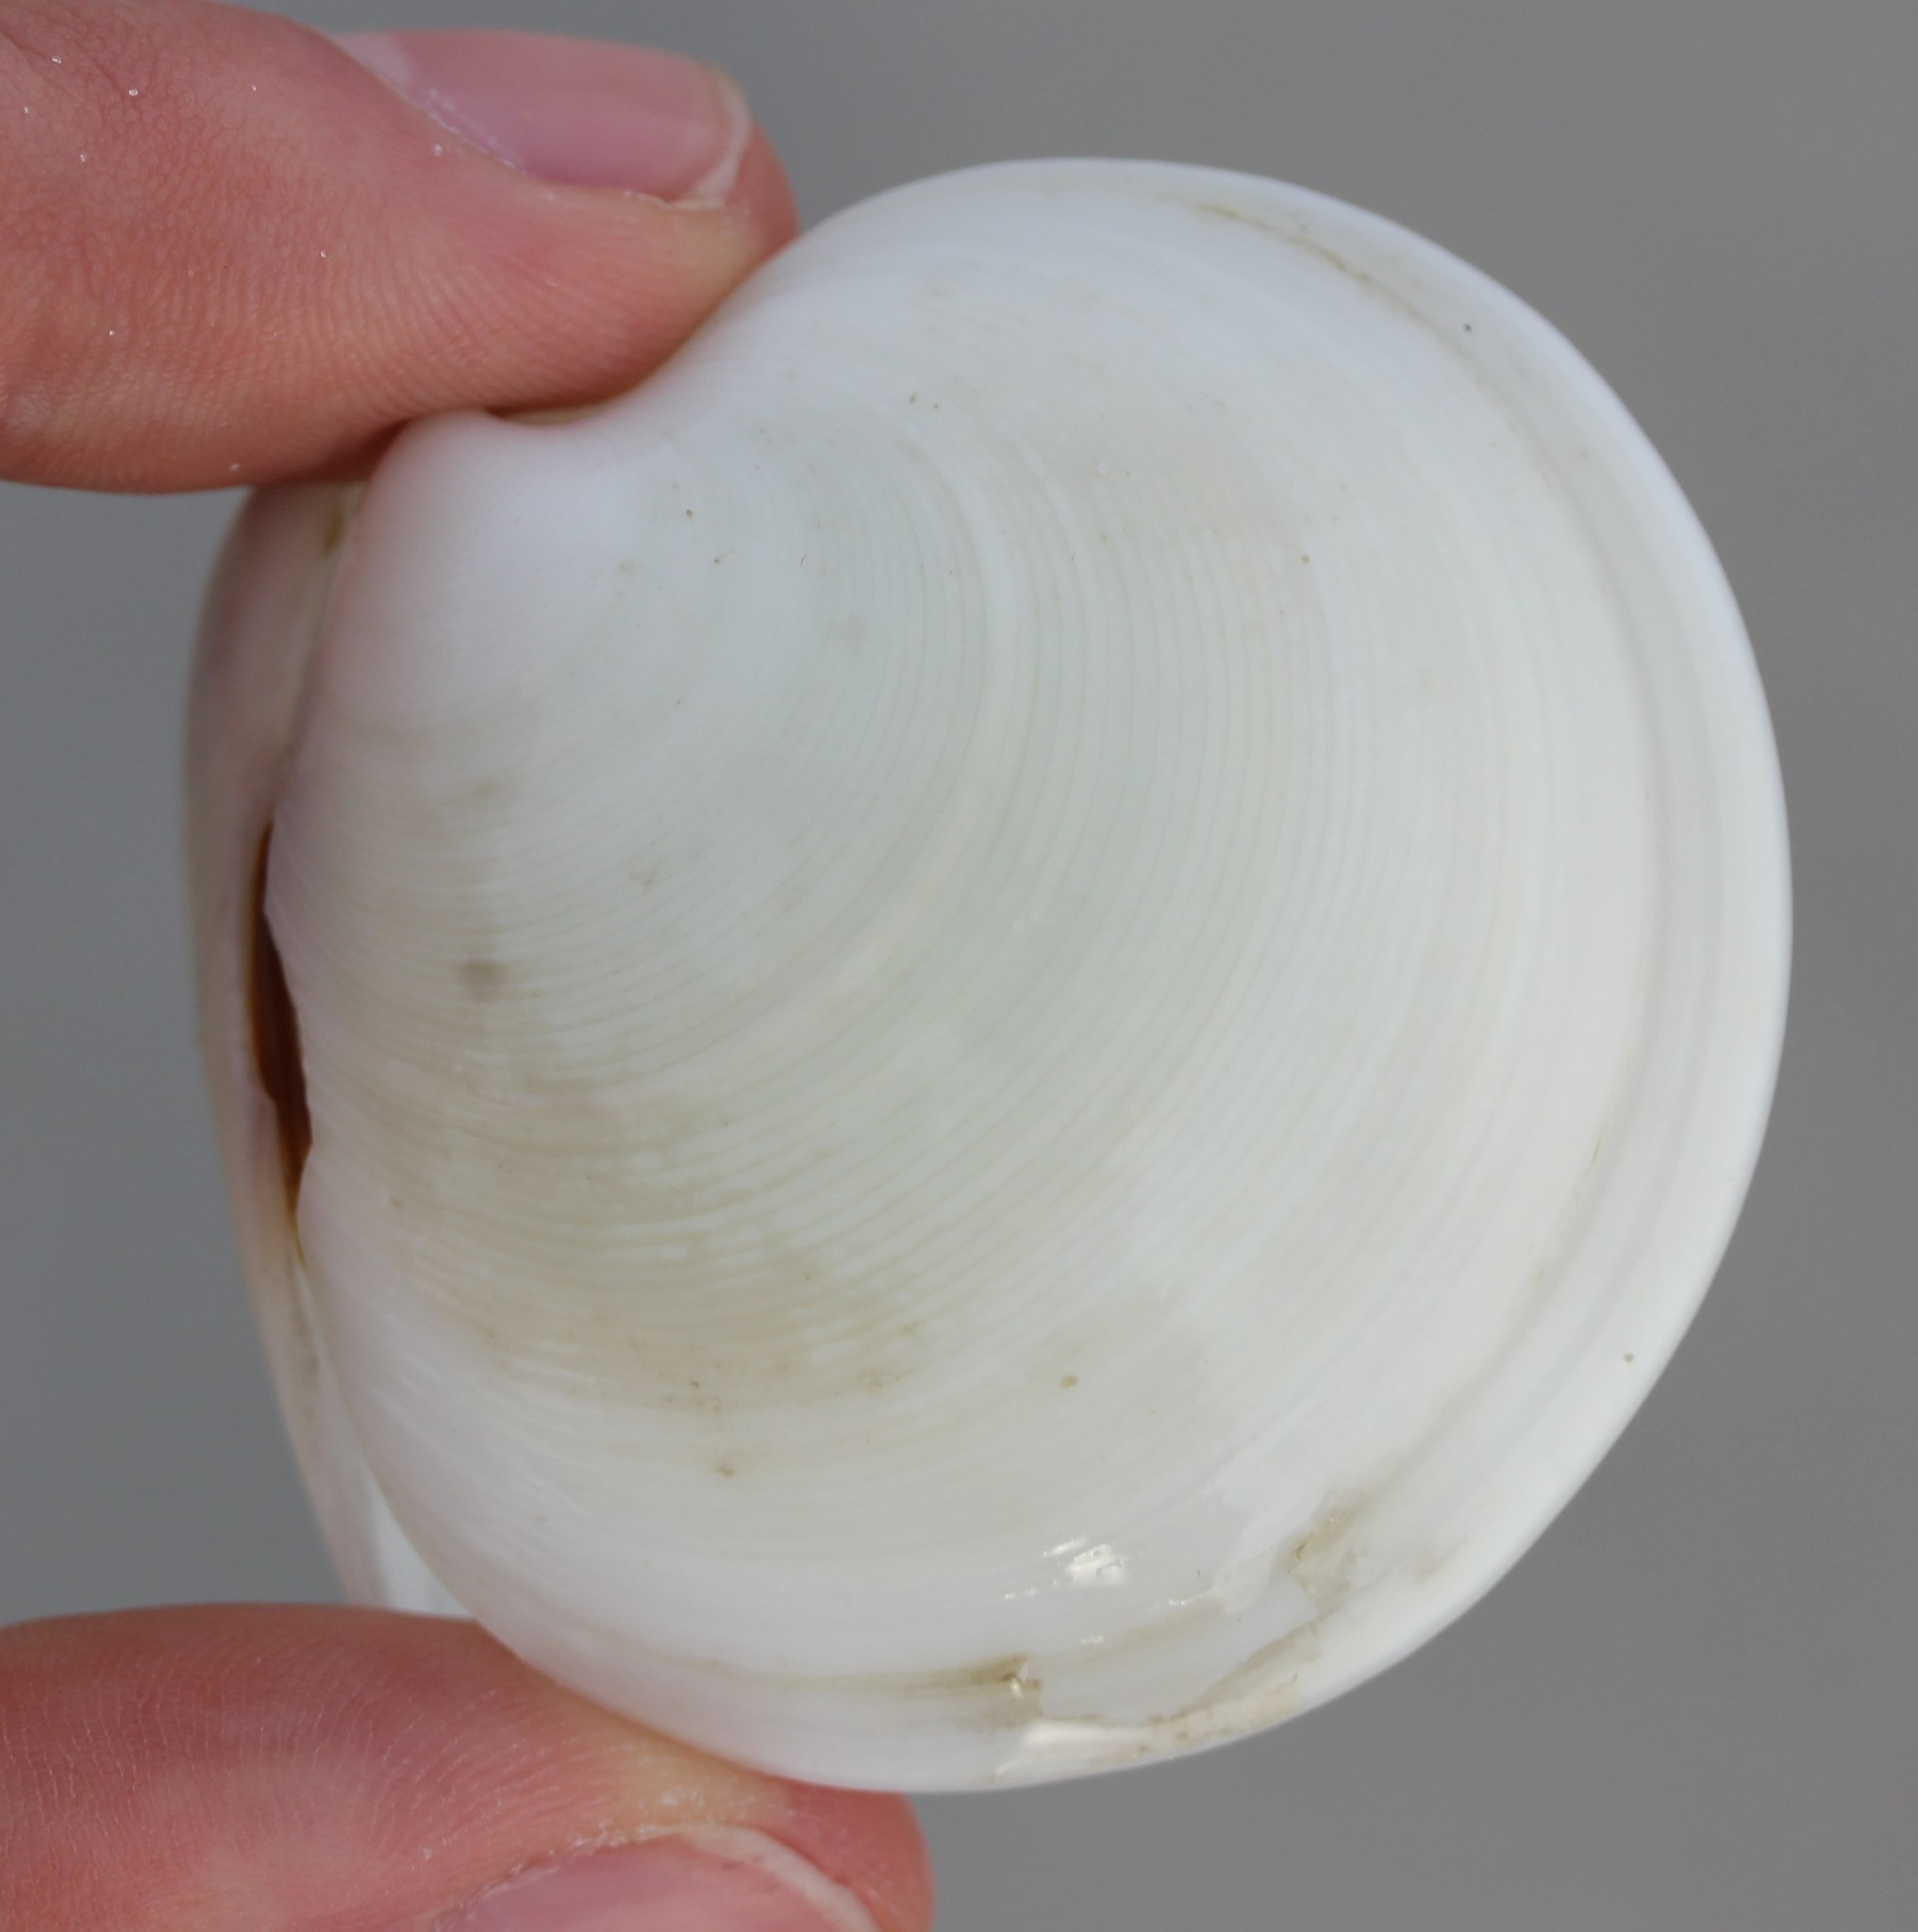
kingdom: Animalia
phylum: Mollusca
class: Bivalvia
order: Venerida
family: Veneridae
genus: Dosinia
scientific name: Dosinia discus
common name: Disk dosinia
